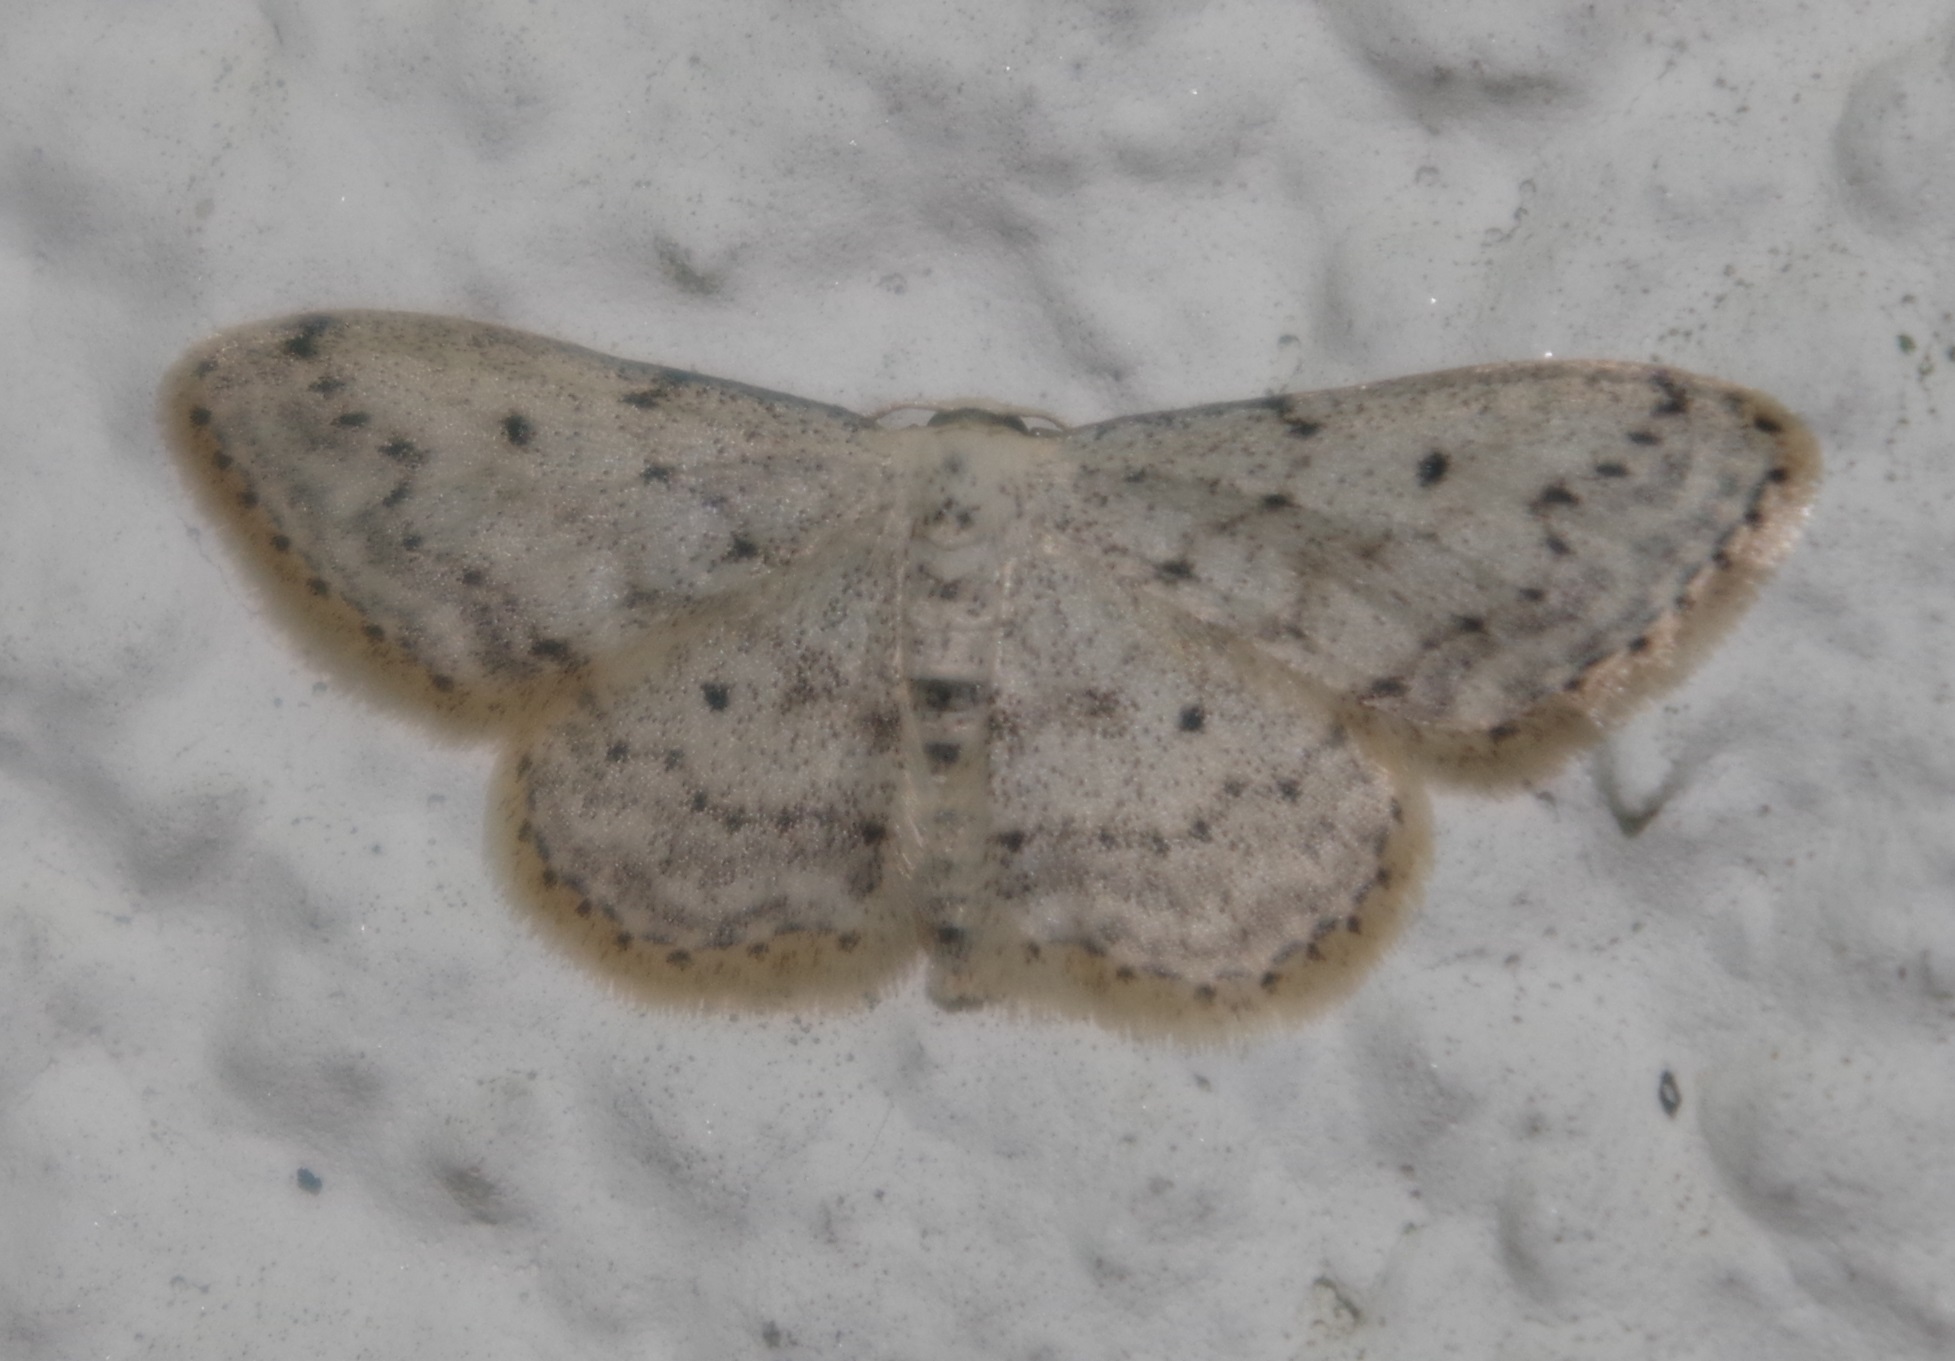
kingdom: Animalia
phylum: Arthropoda
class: Insecta
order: Lepidoptera
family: Geometridae
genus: Idaea
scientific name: Idaea seriata
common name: Small dusty wave
